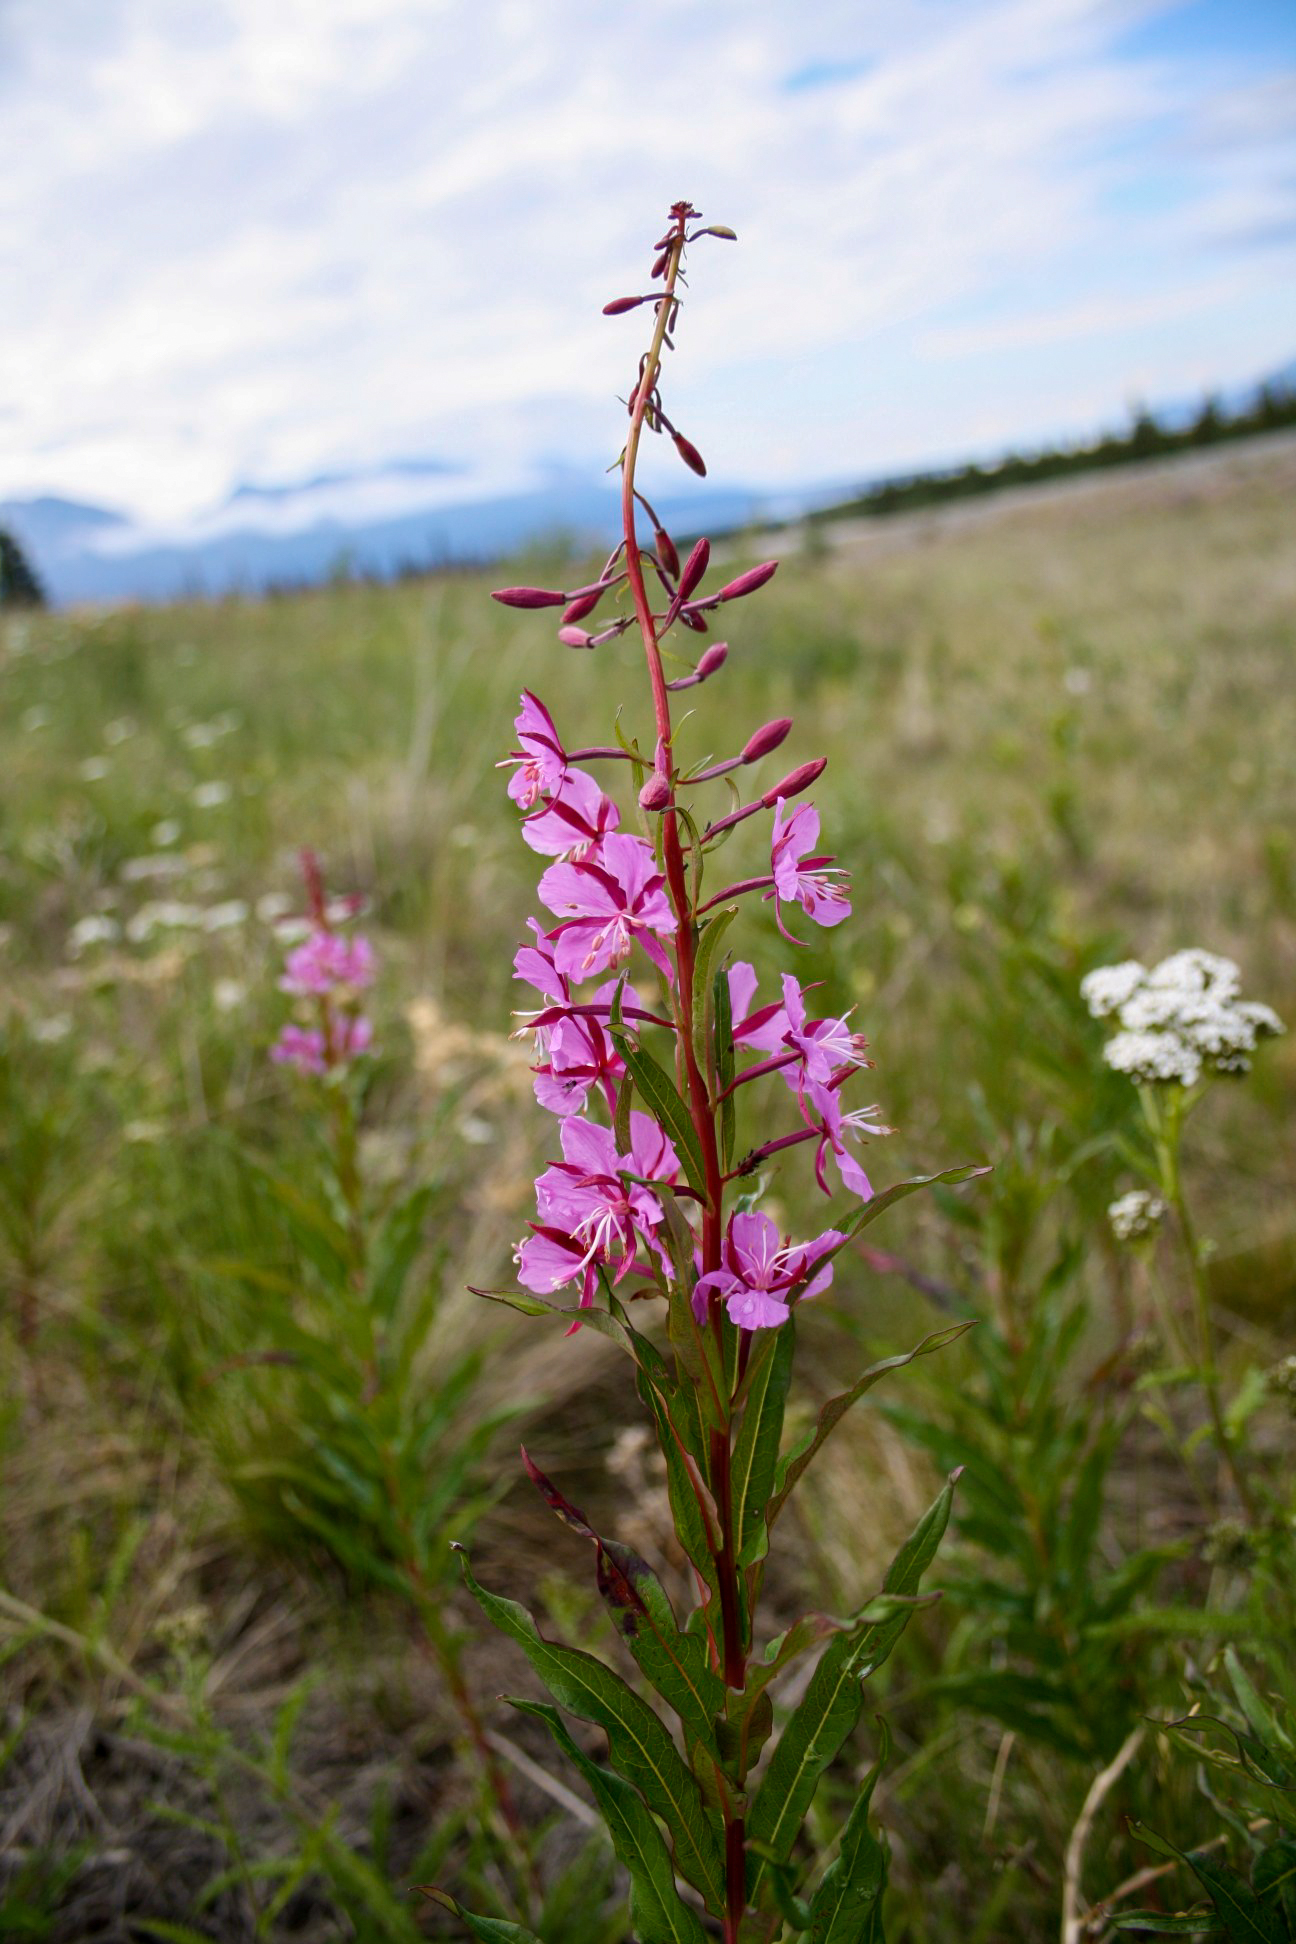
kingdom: Plantae
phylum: Tracheophyta
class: Magnoliopsida
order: Myrtales
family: Onagraceae
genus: Chamaenerion
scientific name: Chamaenerion angustifolium
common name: Fireweed
